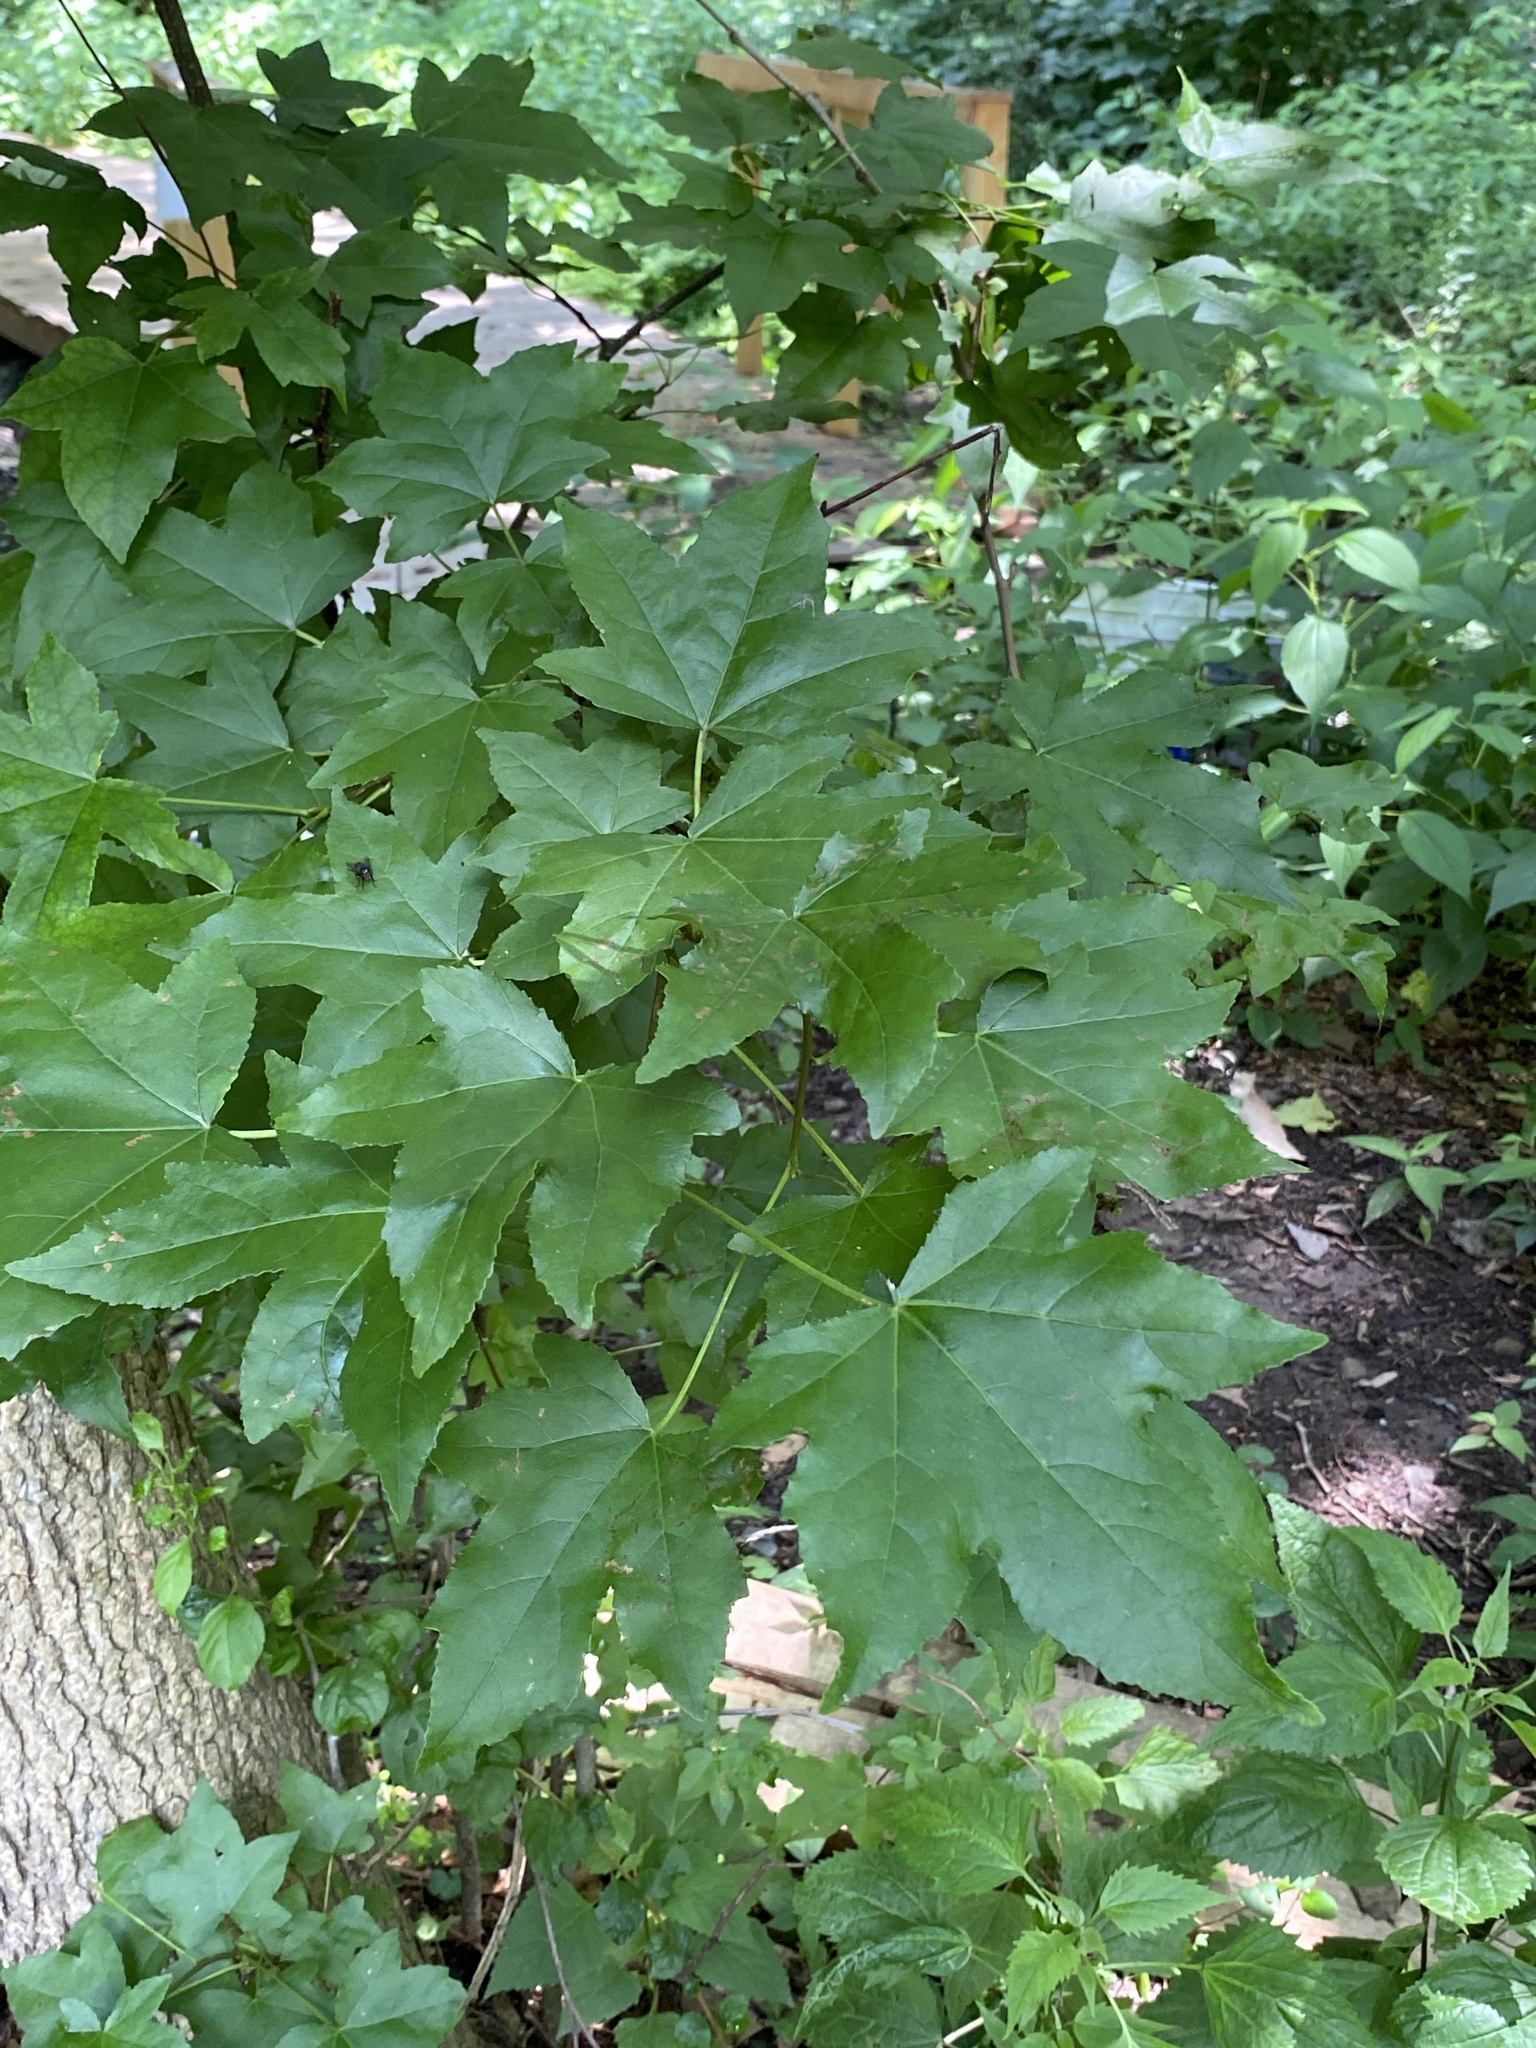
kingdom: Plantae
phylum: Tracheophyta
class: Magnoliopsida
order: Saxifragales
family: Altingiaceae
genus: Liquidambar
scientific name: Liquidambar styraciflua
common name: Sweet gum
